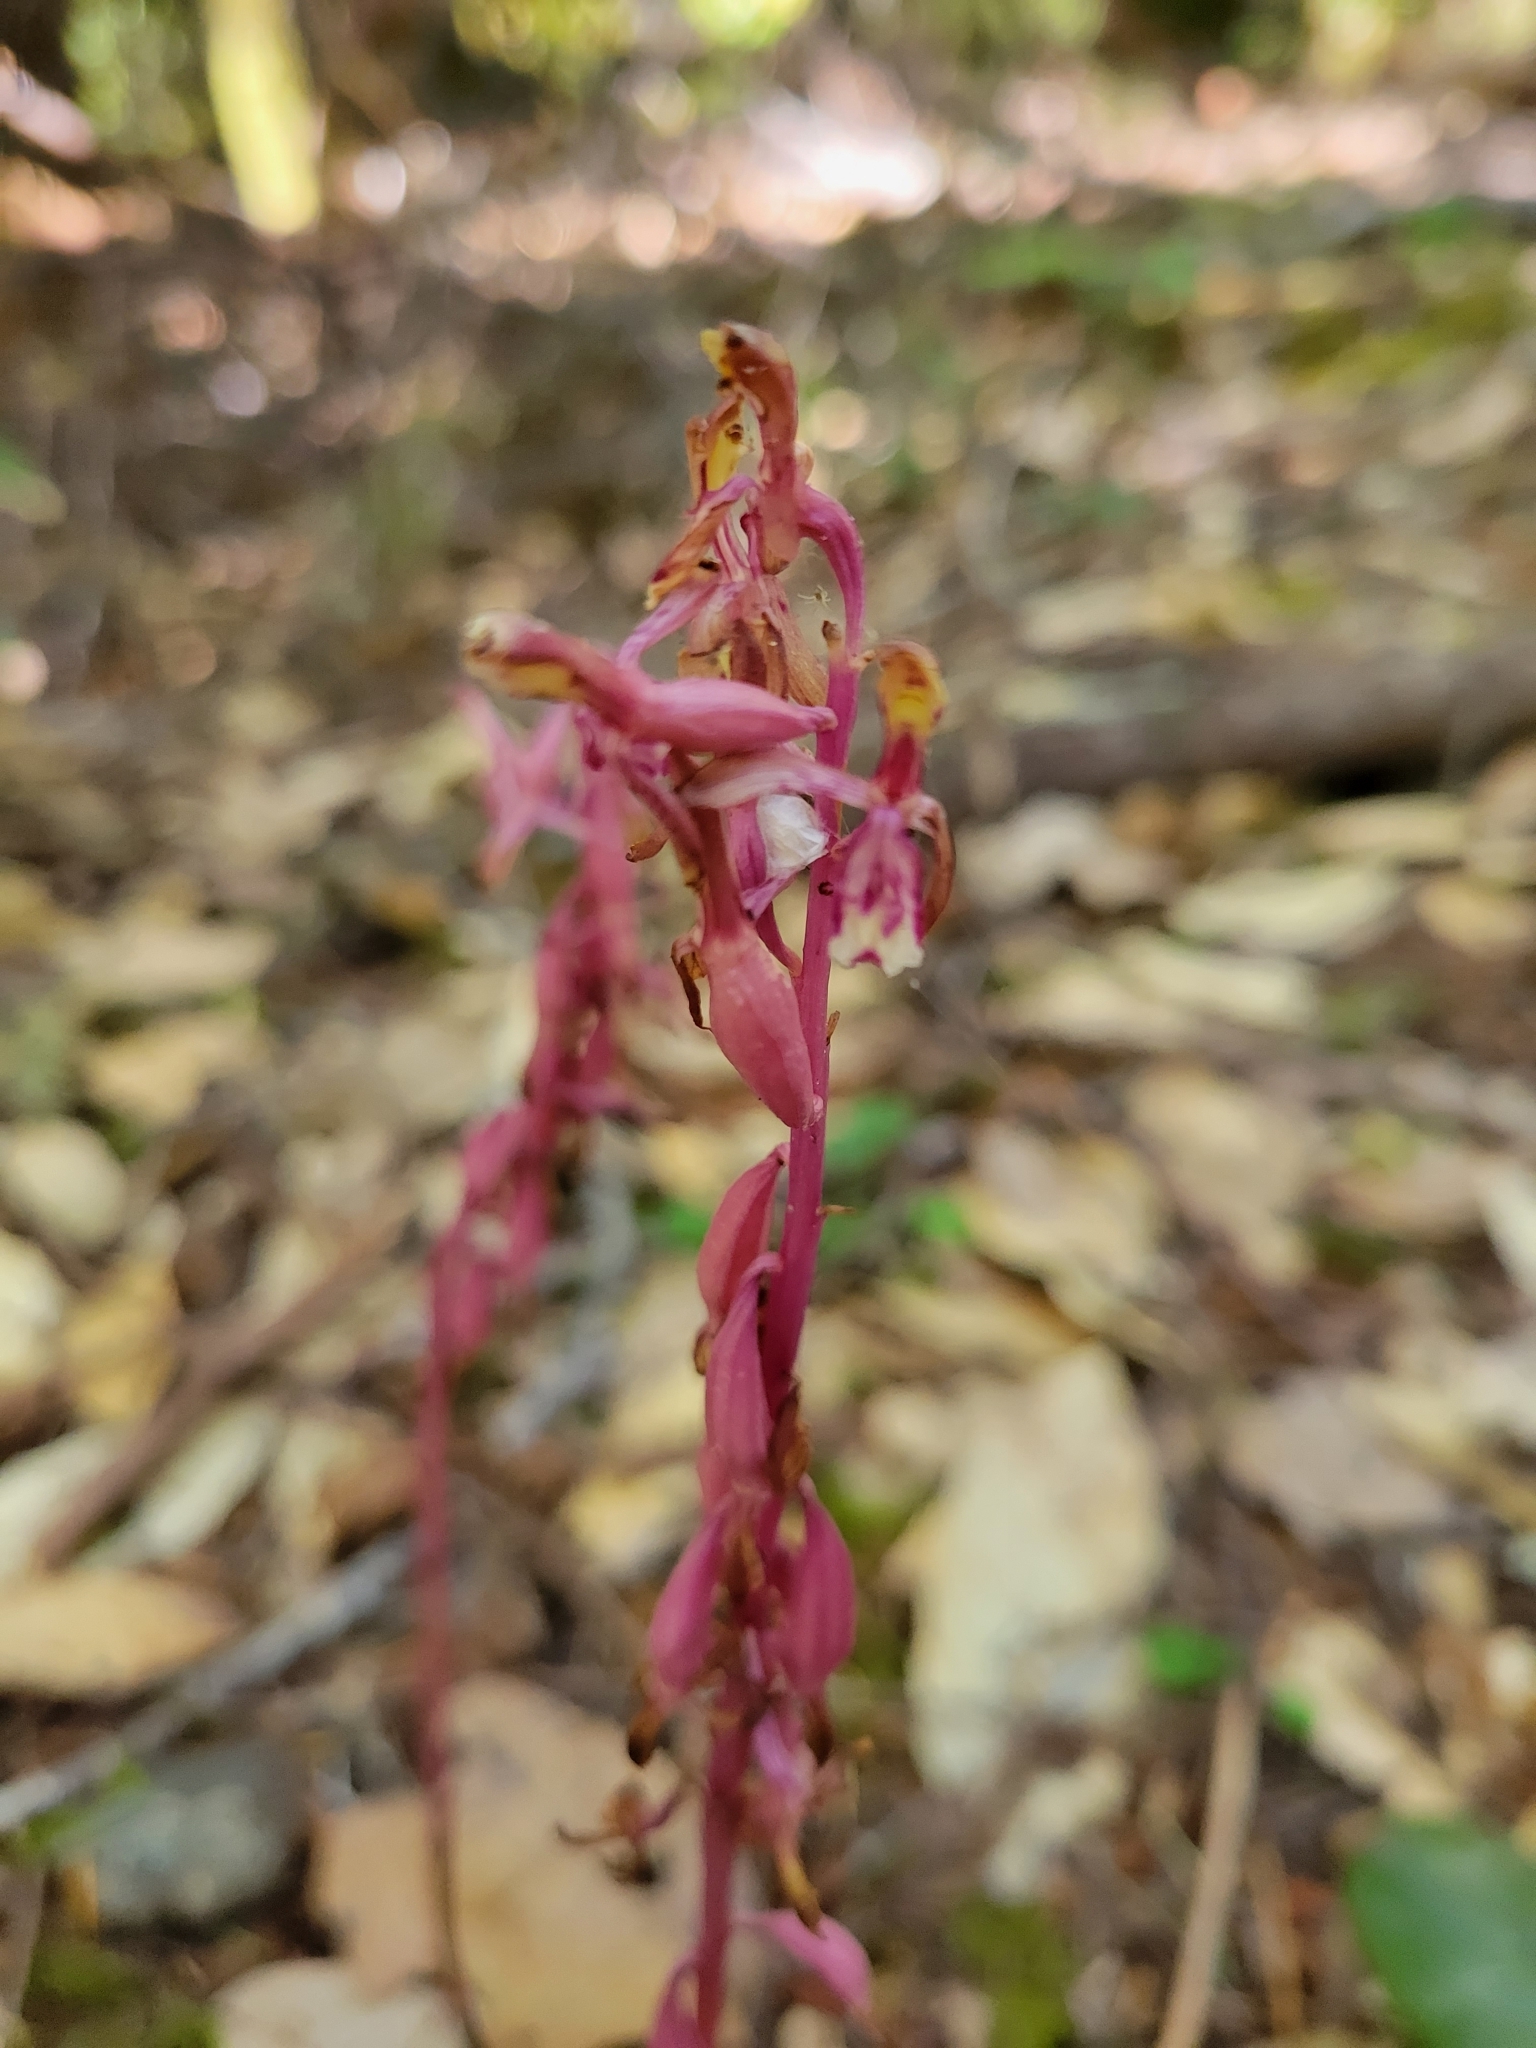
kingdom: Plantae
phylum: Tracheophyta
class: Liliopsida
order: Asparagales
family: Orchidaceae
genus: Corallorhiza
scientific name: Corallorhiza mertensiana
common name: Pacific coralroot
